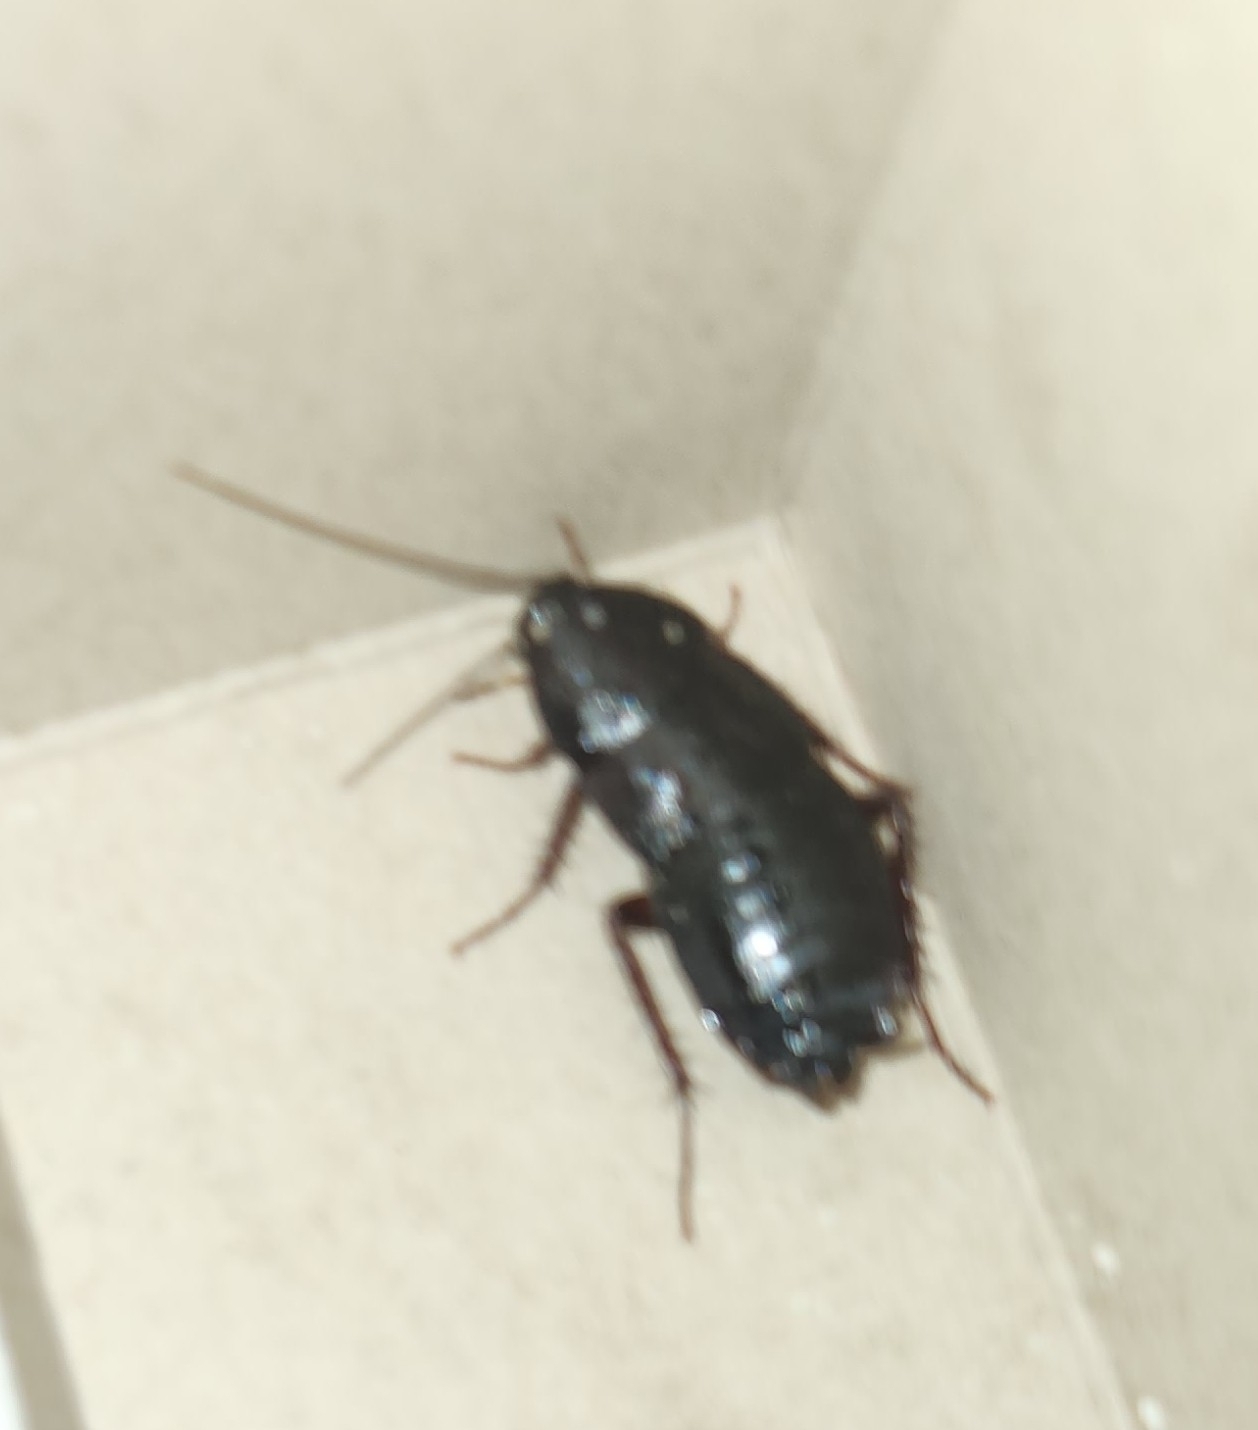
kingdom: Animalia
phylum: Arthropoda
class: Insecta
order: Blattodea
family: Blattidae
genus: Blatta
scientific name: Blatta orientalis
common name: Oriental cockroach
